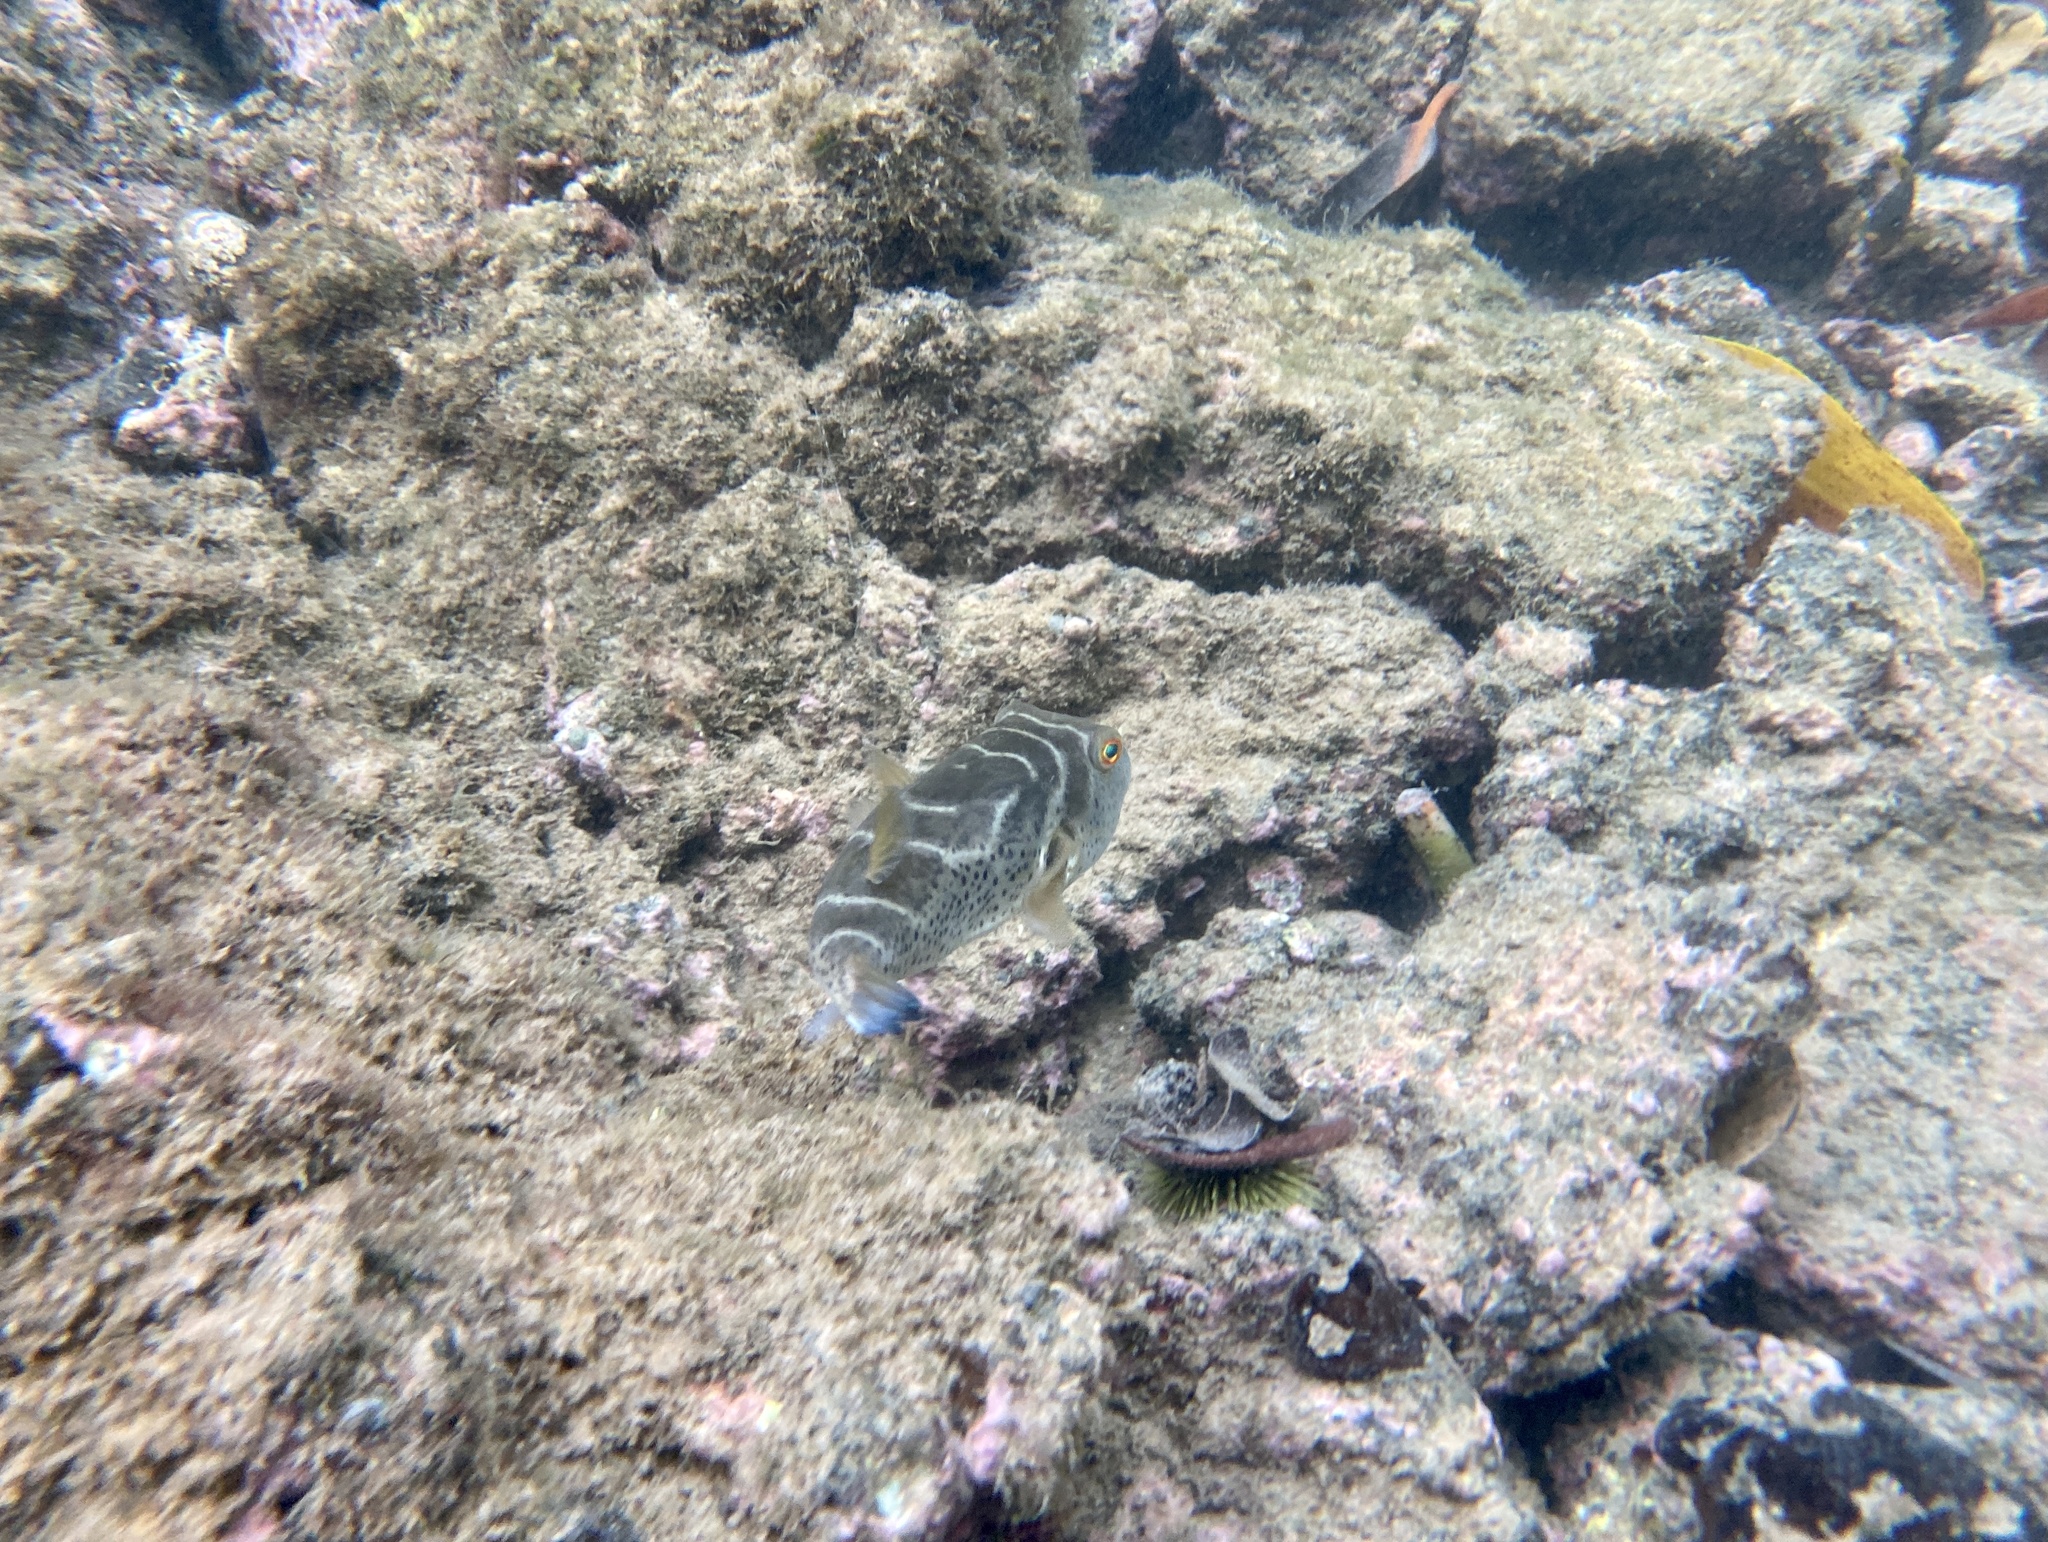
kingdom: Animalia
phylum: Chordata
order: Tetraodontiformes
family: Tetraodontidae
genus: Sphoeroides
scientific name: Sphoeroides annulatus
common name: Bullseye puffer
